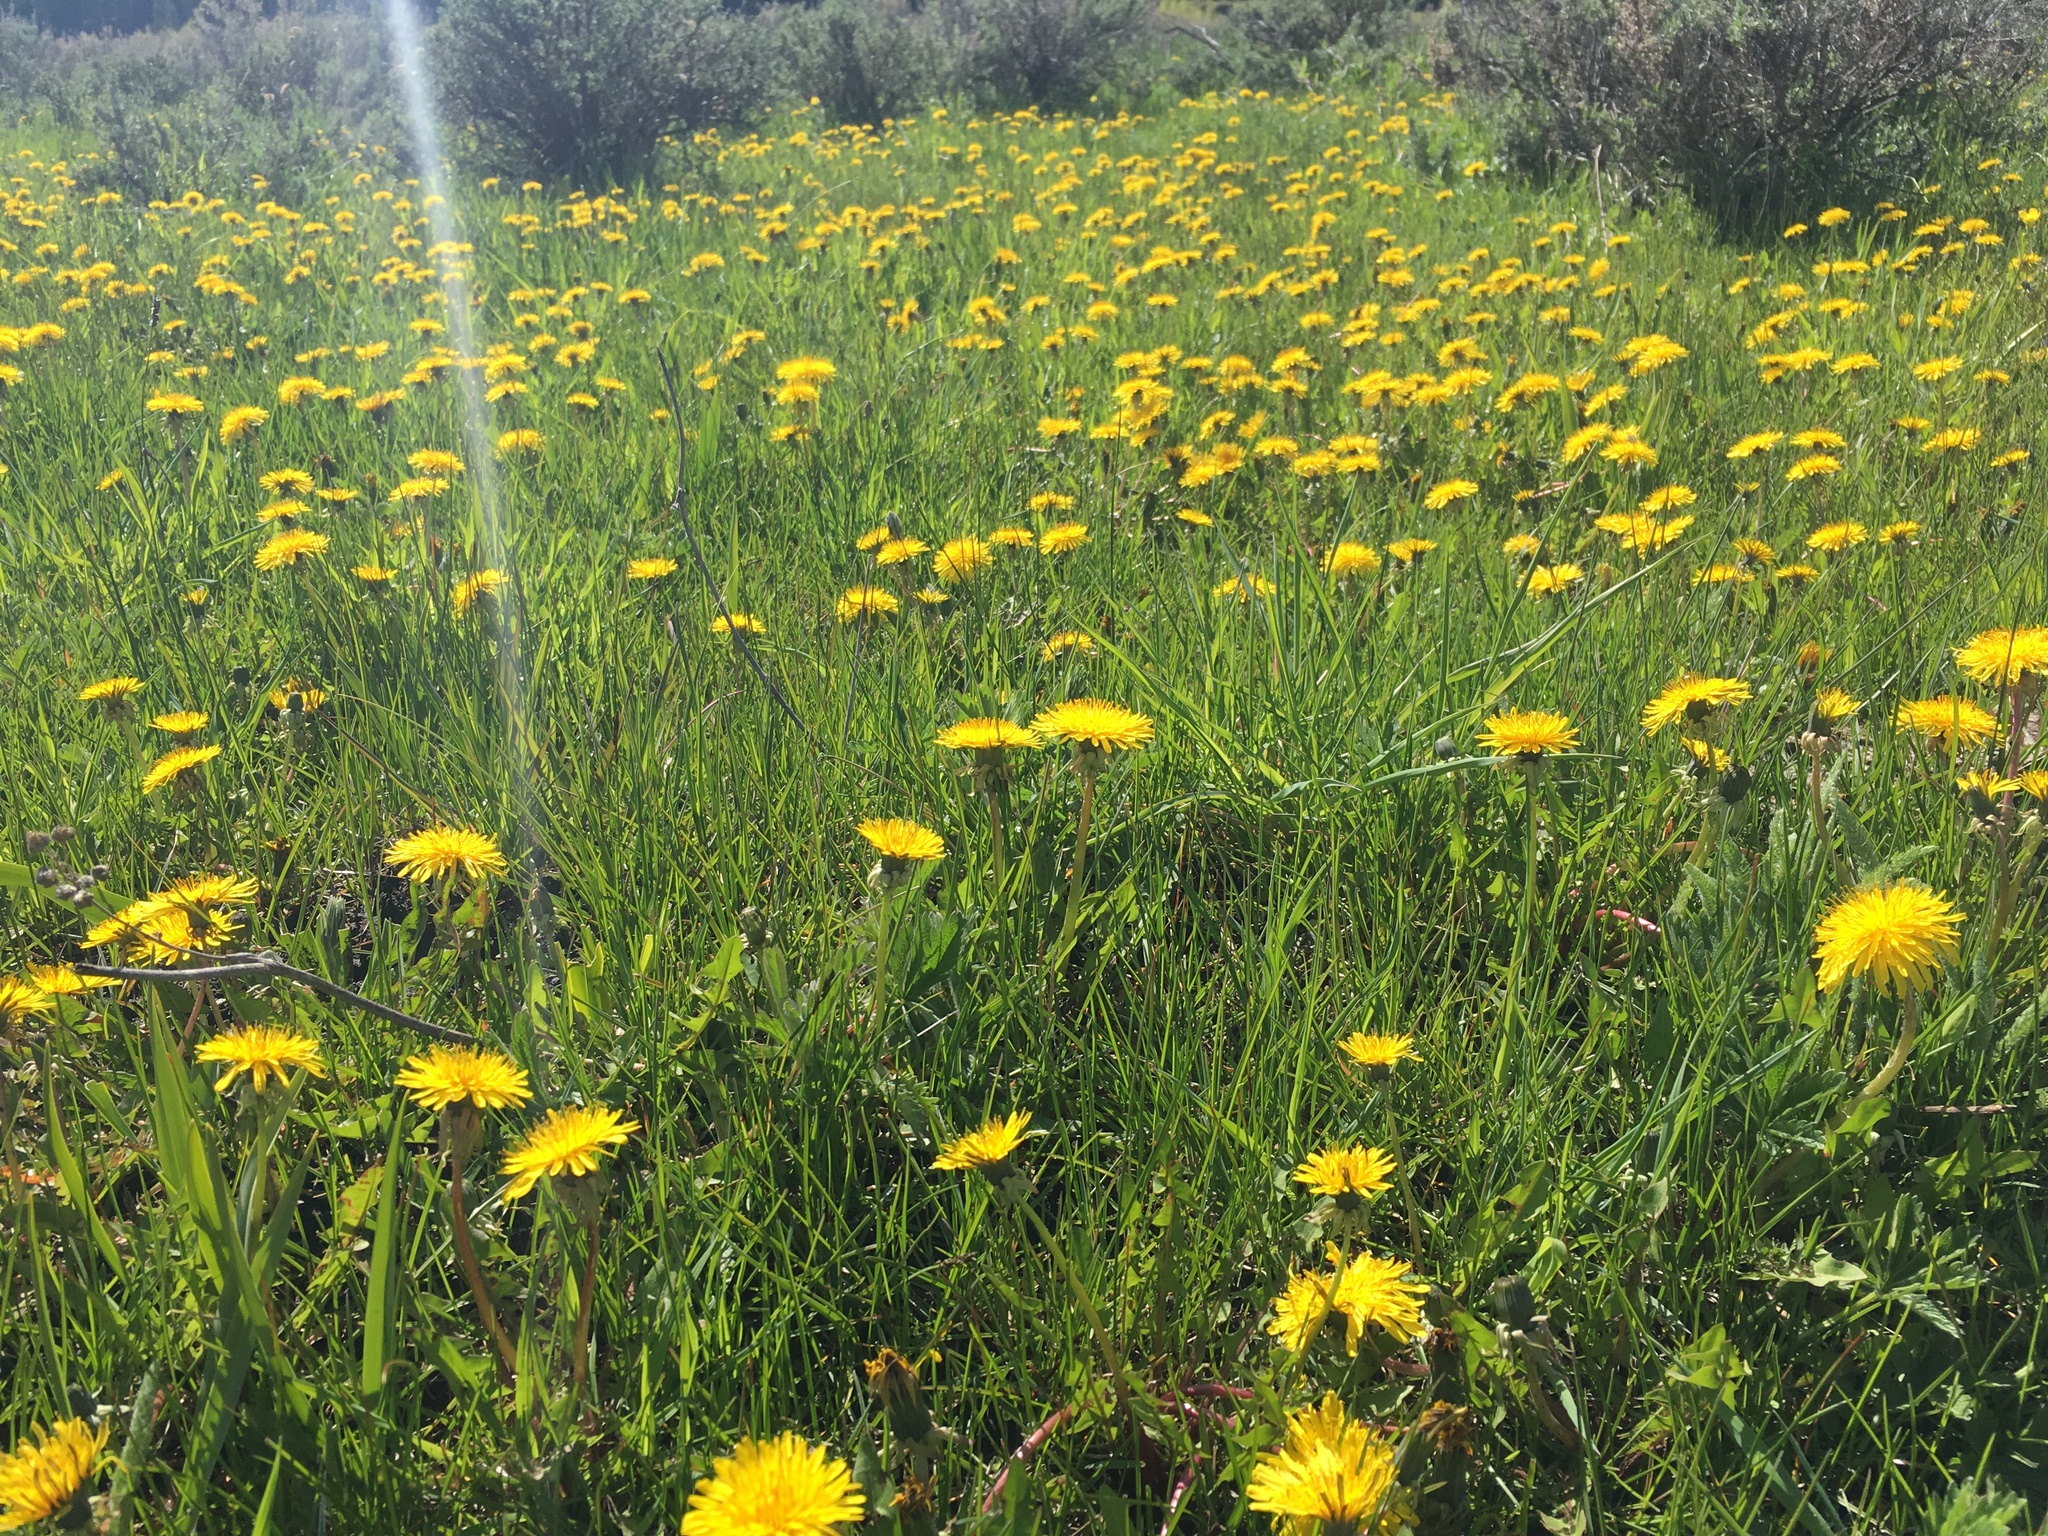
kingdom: Plantae
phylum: Tracheophyta
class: Magnoliopsida
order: Asterales
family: Asteraceae
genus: Taraxacum
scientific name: Taraxacum officinale
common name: Common dandelion
